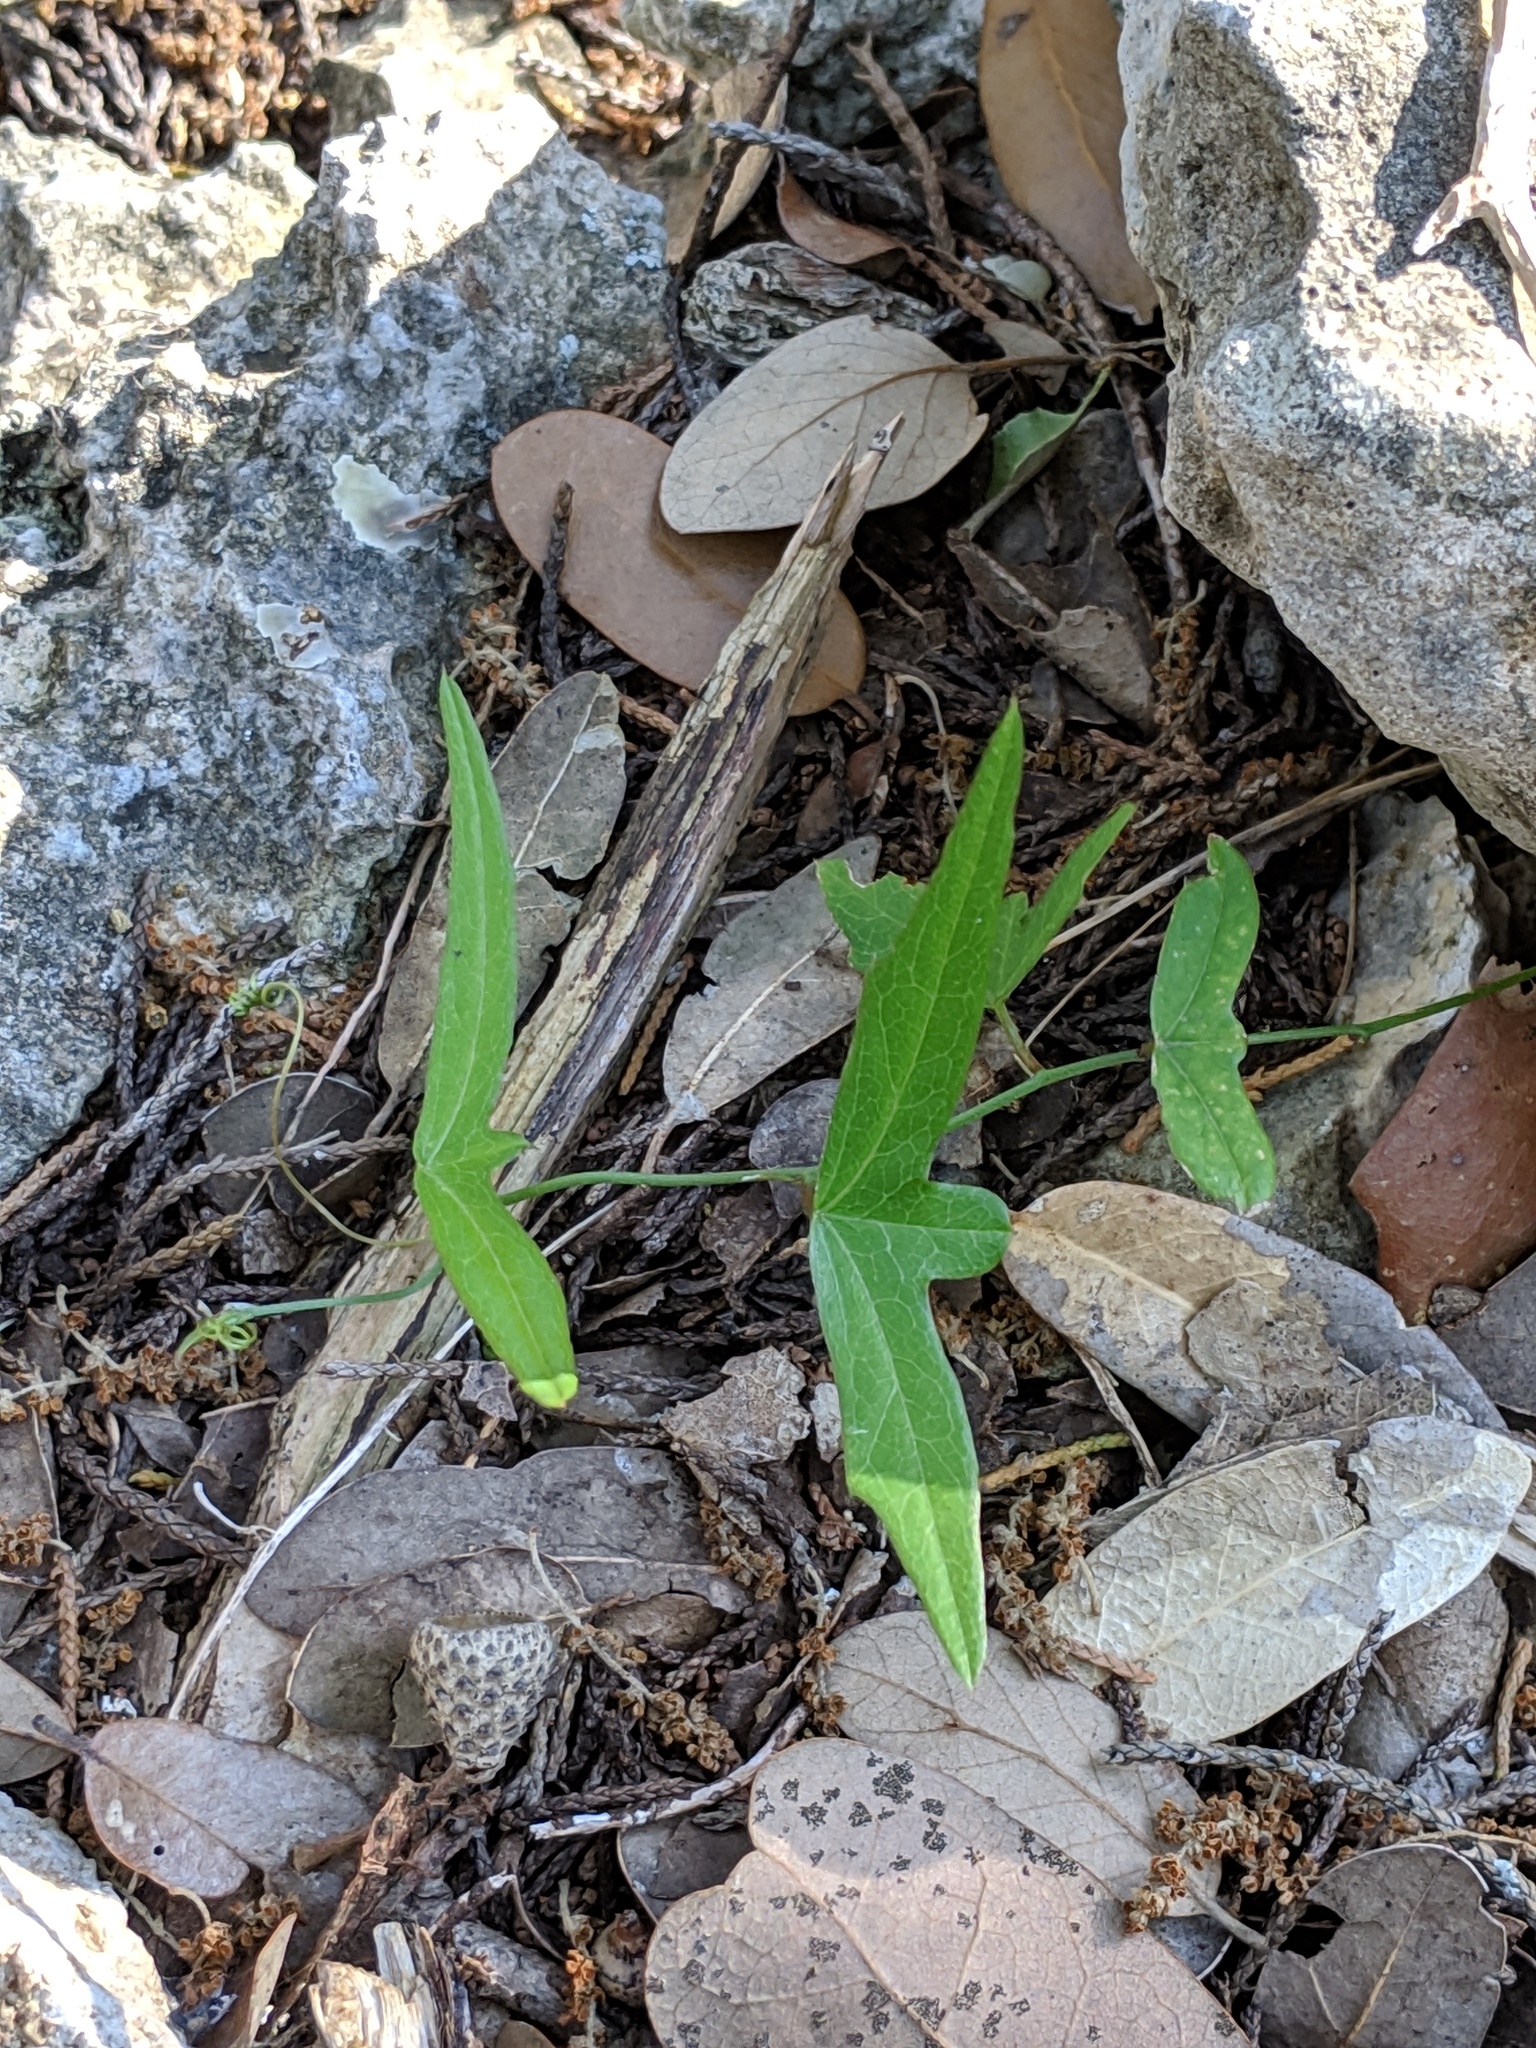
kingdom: Plantae
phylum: Tracheophyta
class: Magnoliopsida
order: Malpighiales
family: Passifloraceae
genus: Passiflora
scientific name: Passiflora tenuiloba
